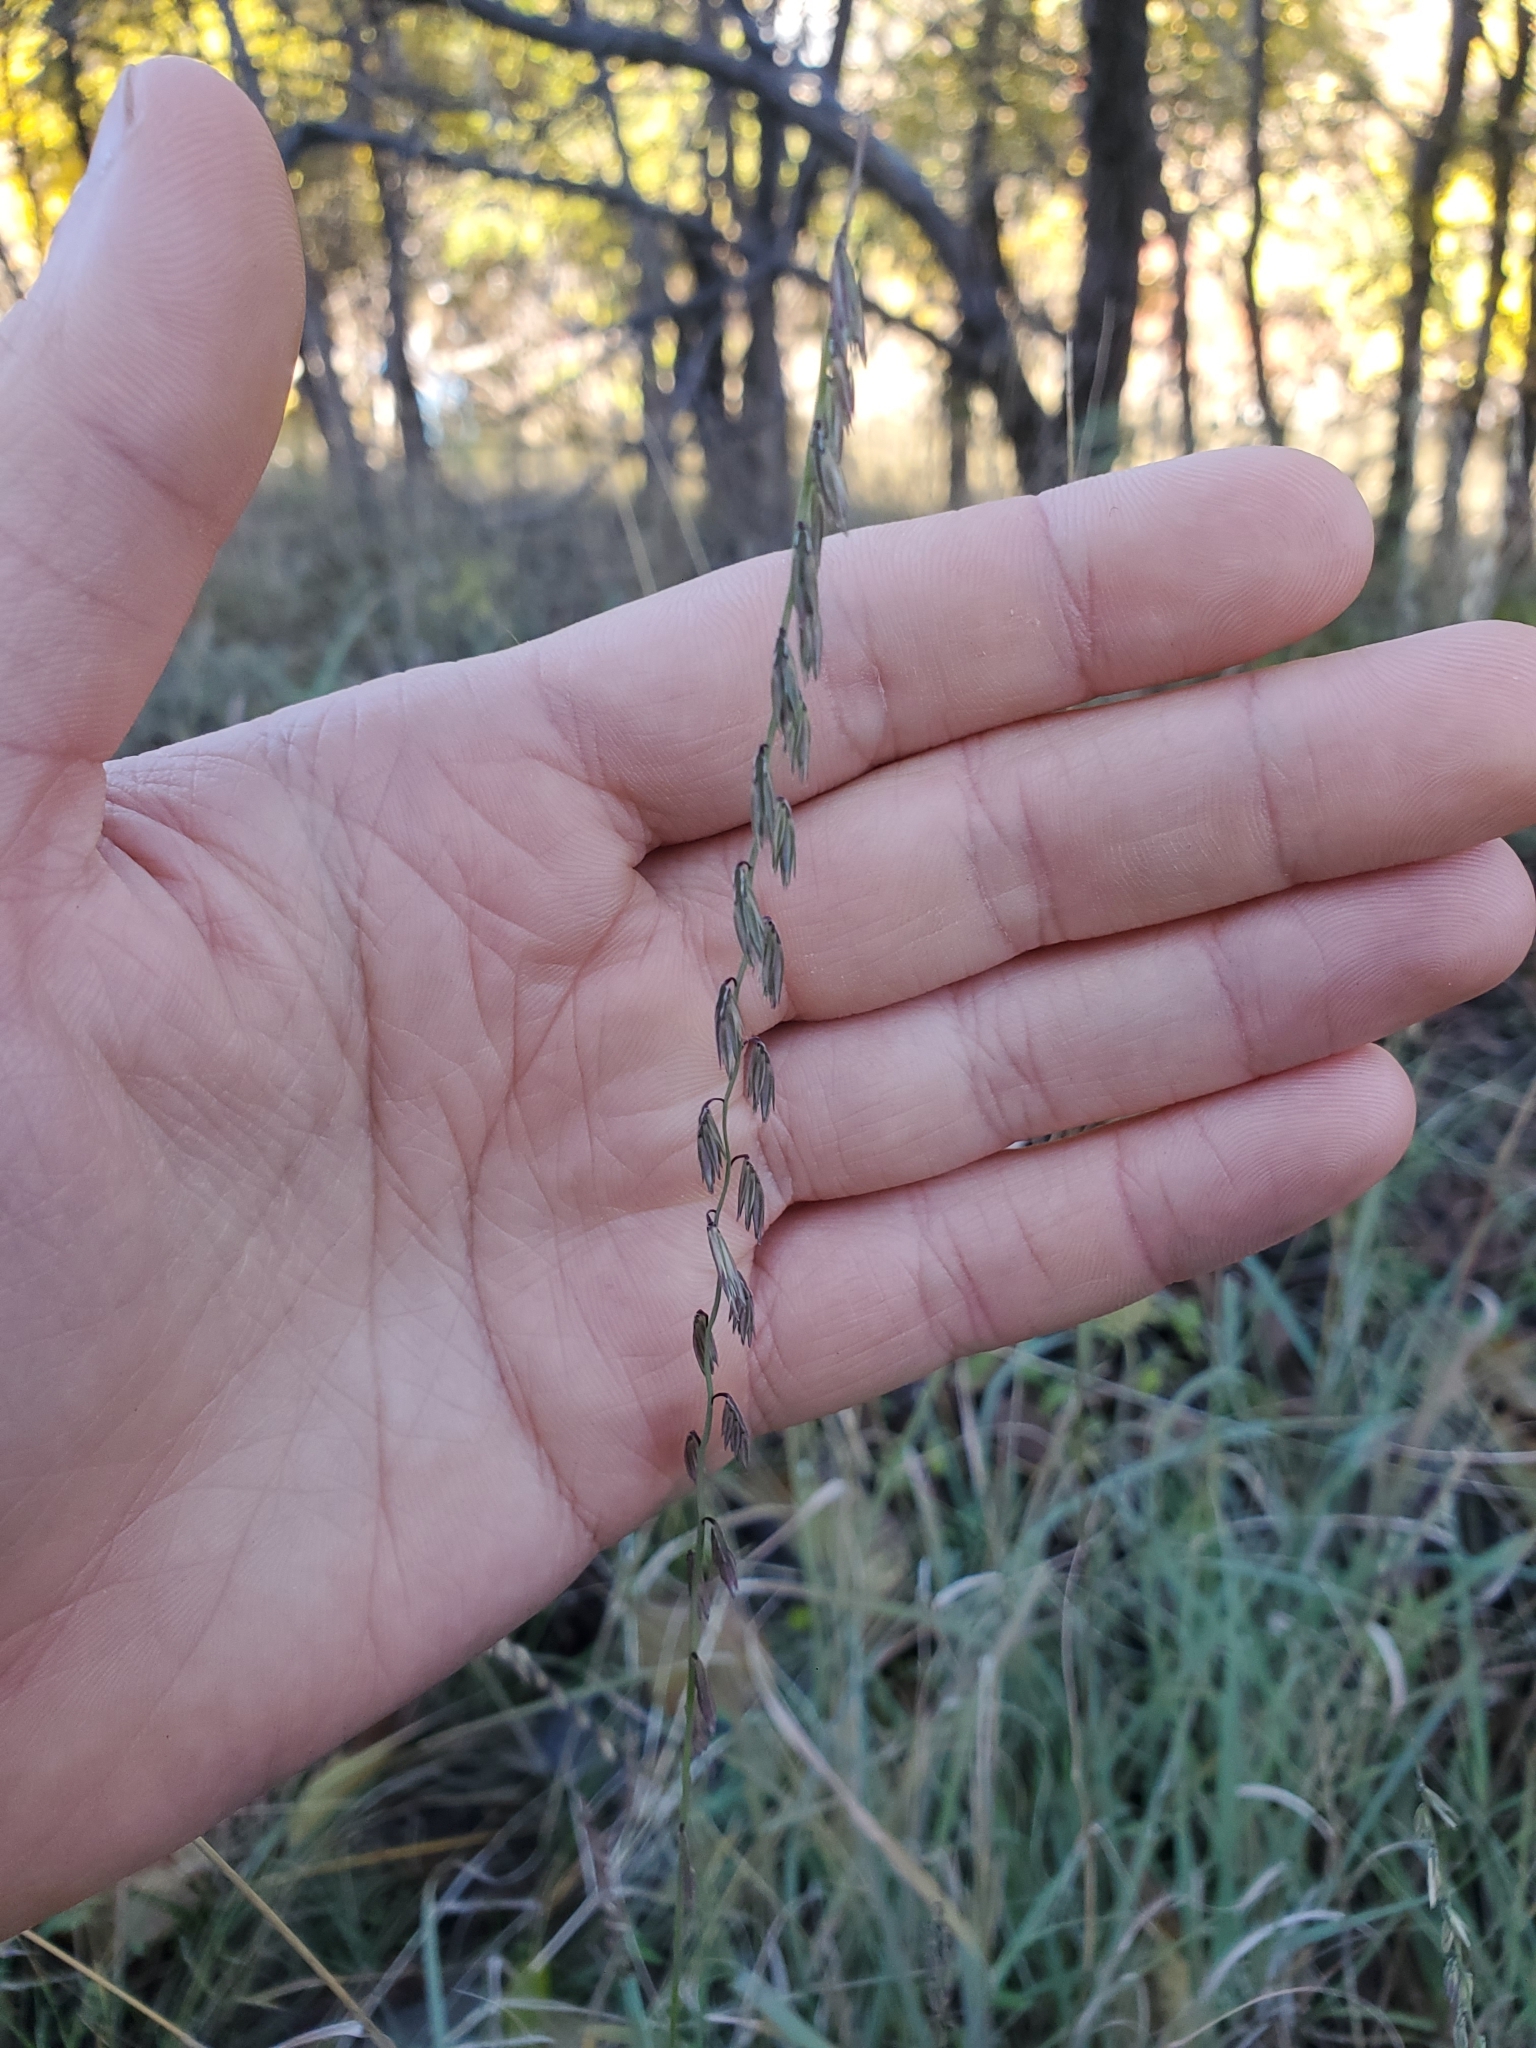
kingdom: Plantae
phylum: Tracheophyta
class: Liliopsida
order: Poales
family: Poaceae
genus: Bouteloua
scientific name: Bouteloua curtipendula
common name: Side-oats grama
